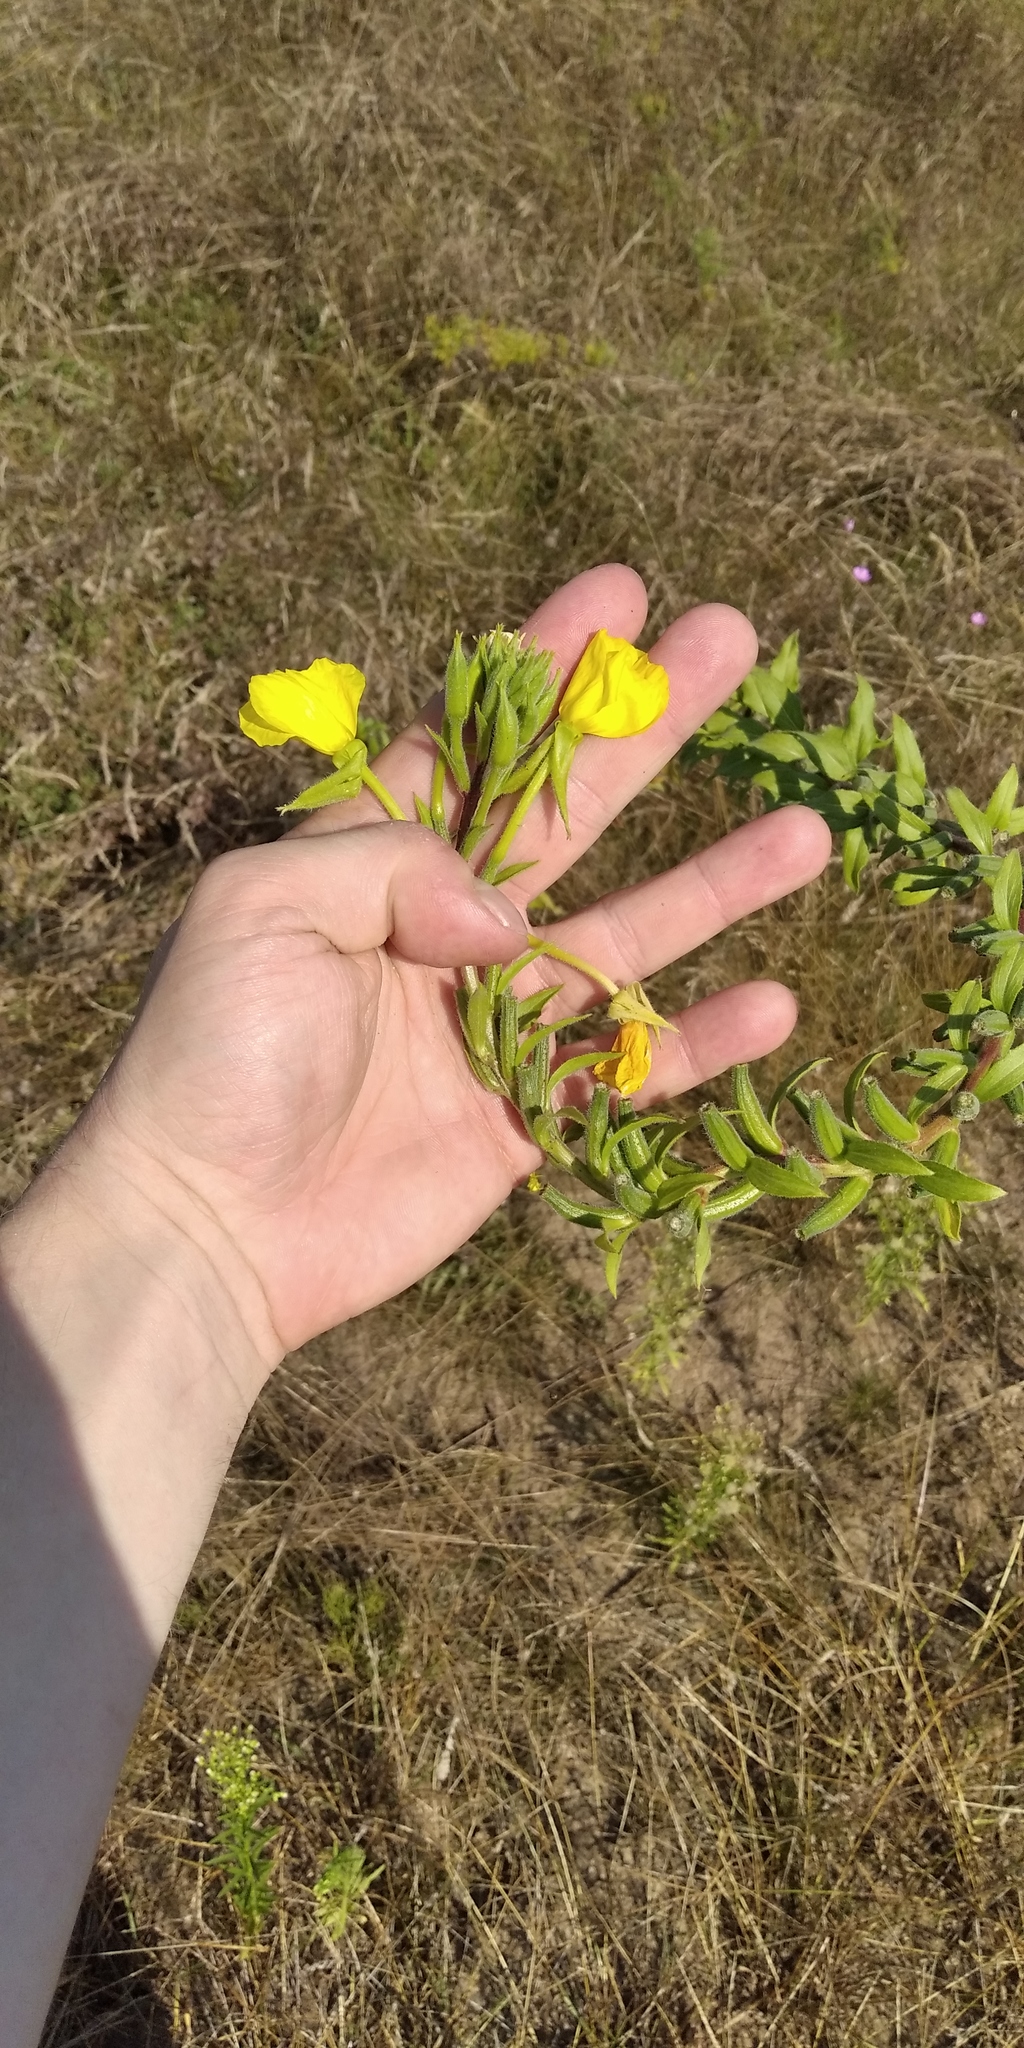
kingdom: Plantae
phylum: Tracheophyta
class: Magnoliopsida
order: Myrtales
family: Onagraceae
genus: Oenothera
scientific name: Oenothera biennis
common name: Common evening-primrose
